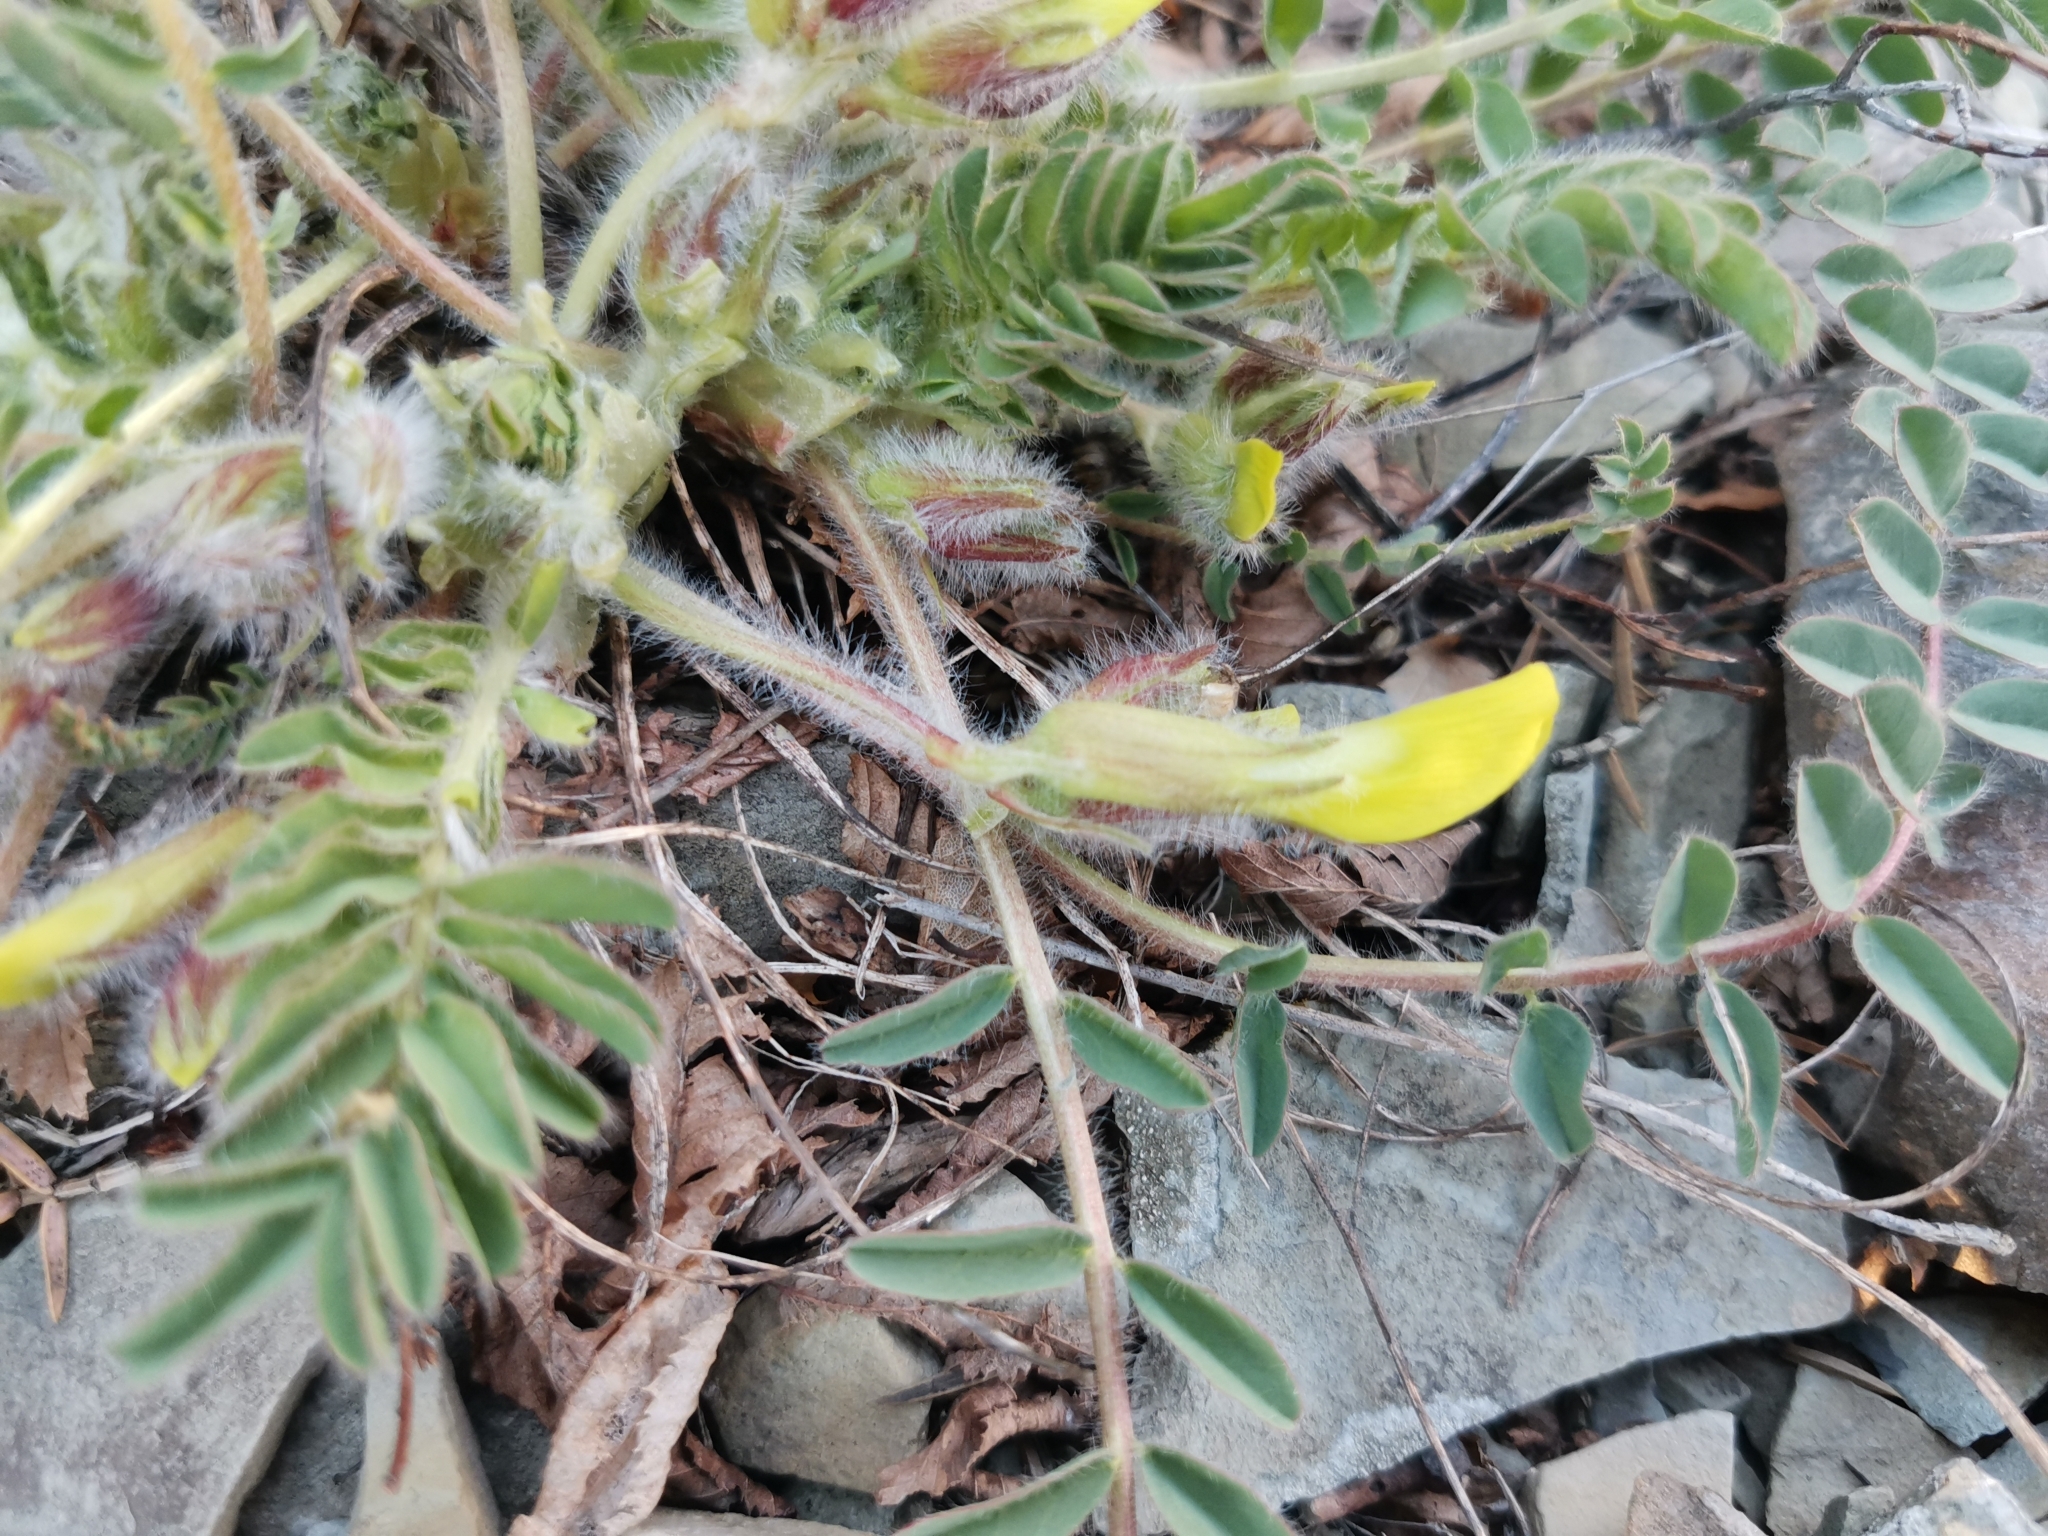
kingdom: Plantae
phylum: Tracheophyta
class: Magnoliopsida
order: Fabales
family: Fabaceae
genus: Astragalus
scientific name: Astragalus utriger
